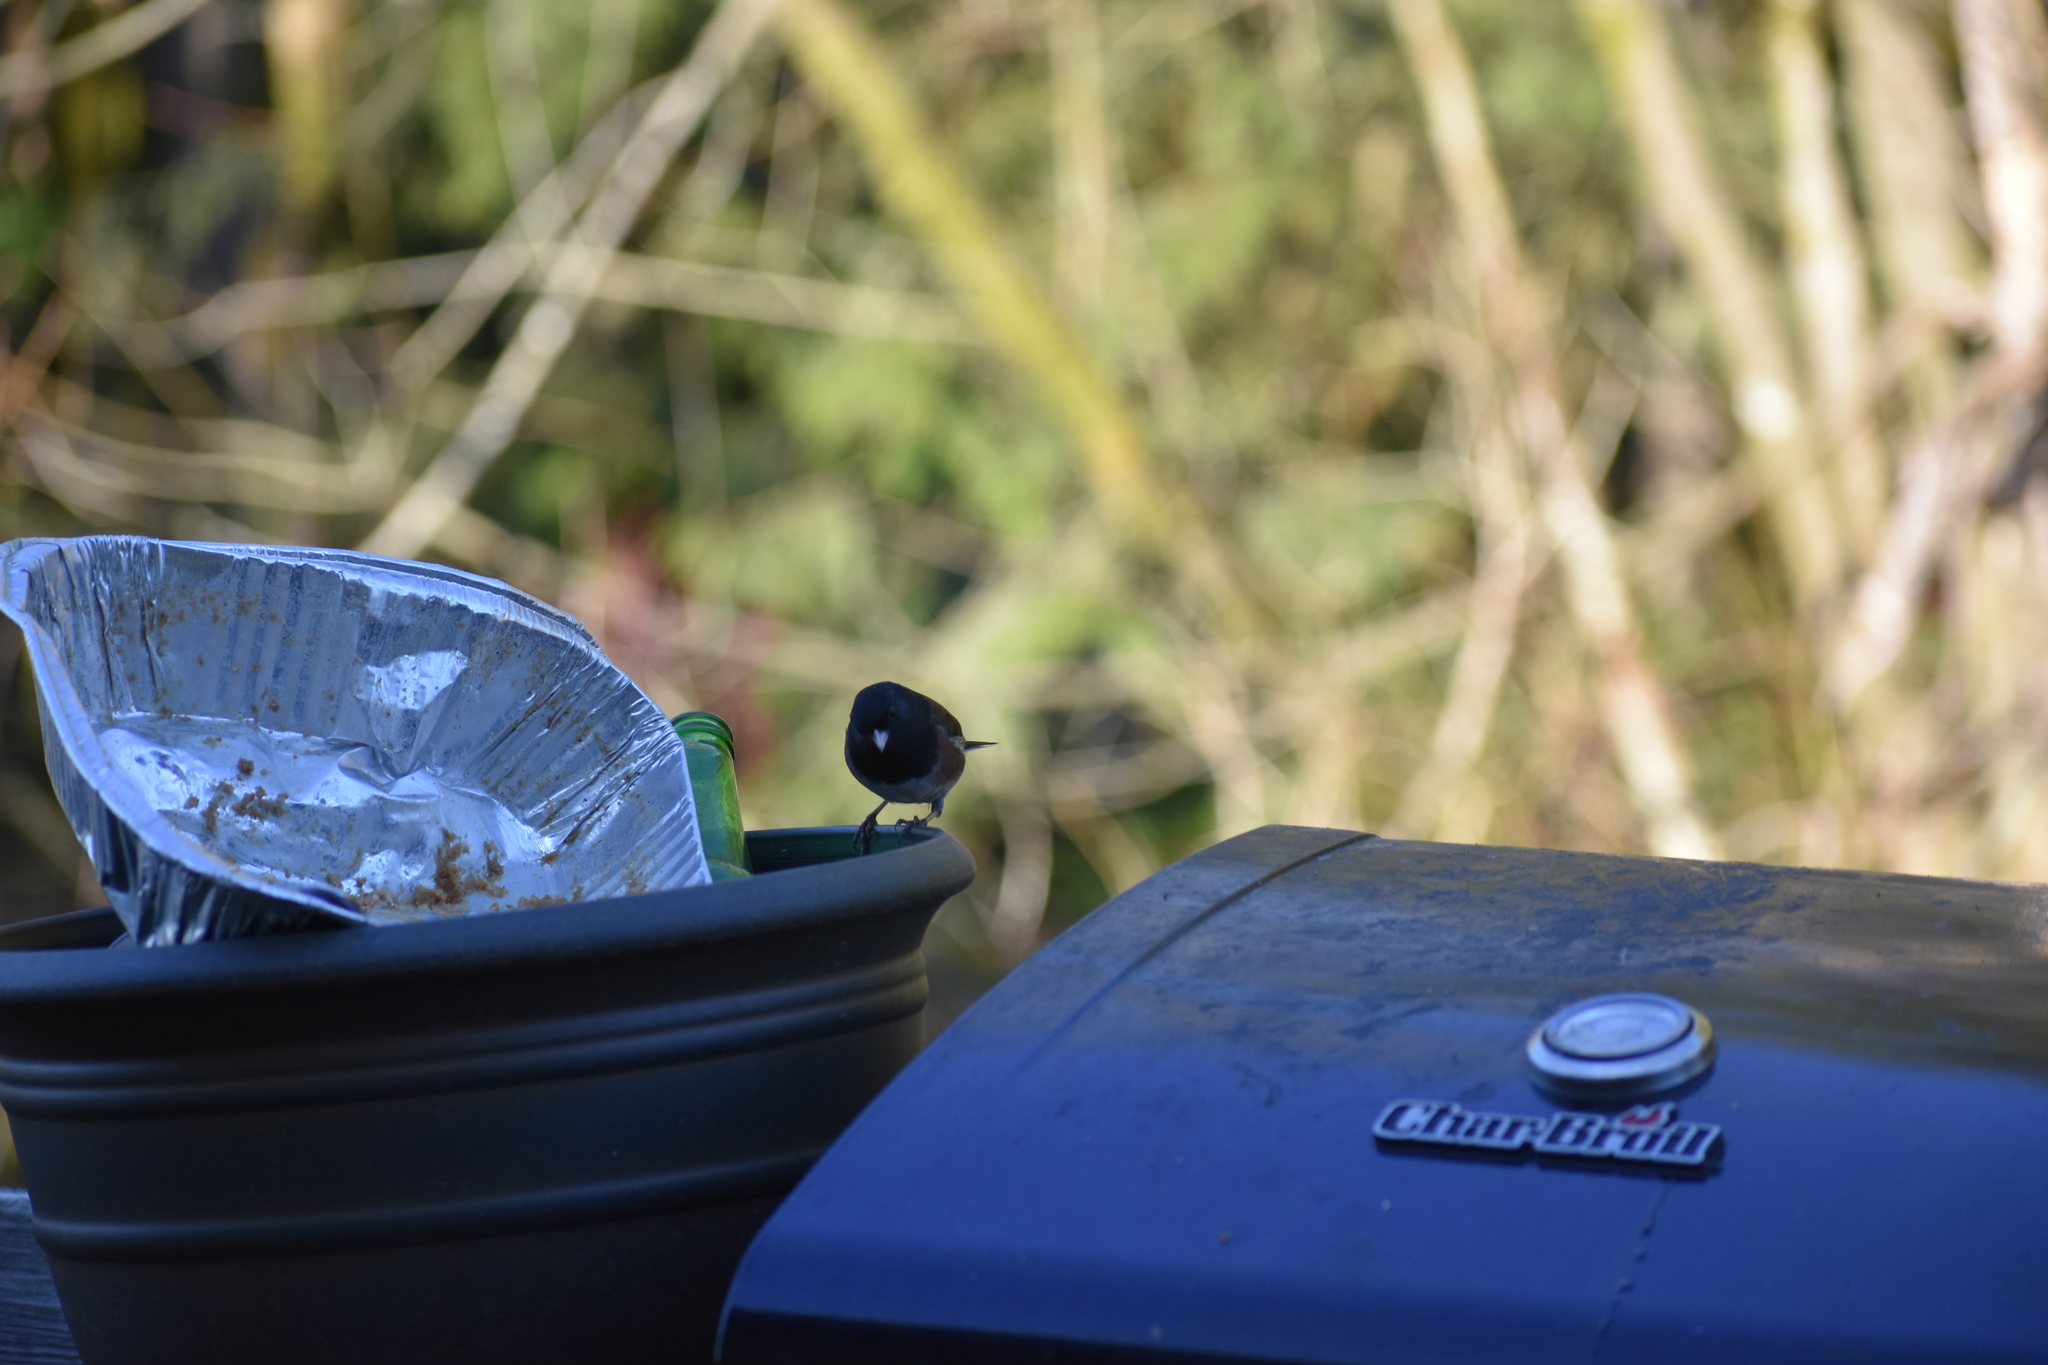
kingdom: Animalia
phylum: Chordata
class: Aves
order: Passeriformes
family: Passerellidae
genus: Junco
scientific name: Junco hyemalis
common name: Dark-eyed junco
